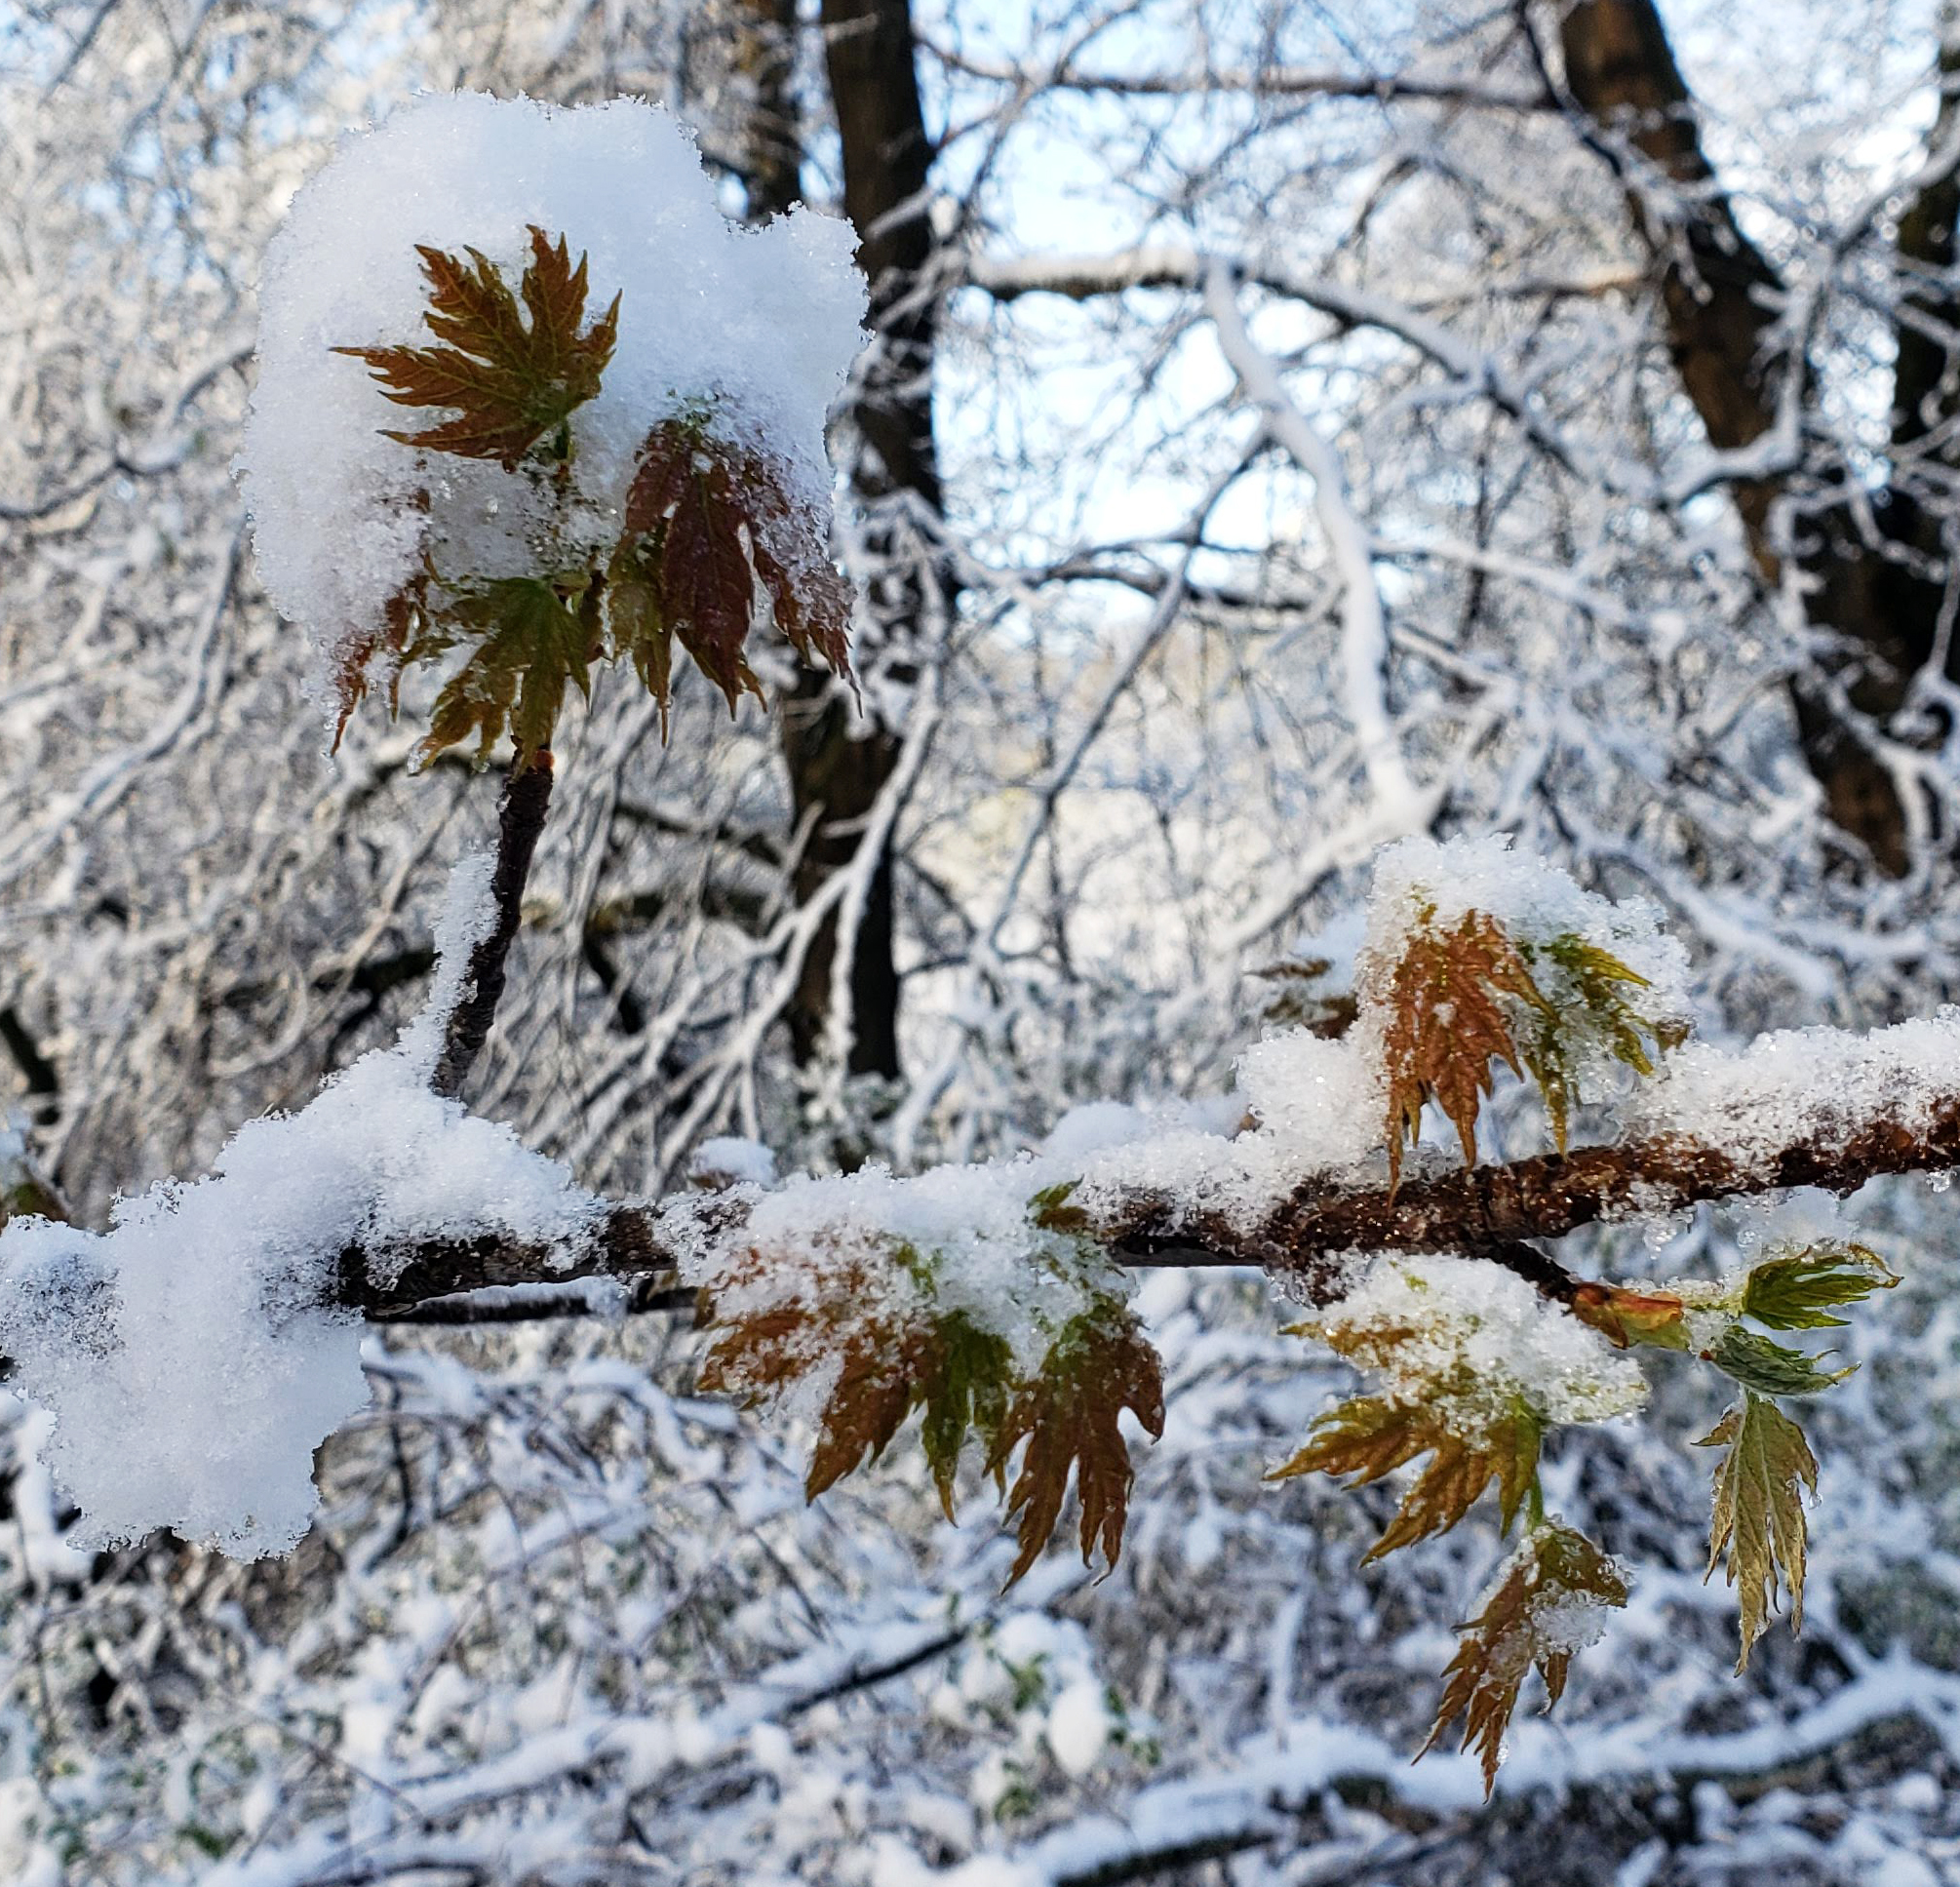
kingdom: Plantae
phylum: Tracheophyta
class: Magnoliopsida
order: Sapindales
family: Sapindaceae
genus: Acer
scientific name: Acer saccharinum
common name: Silver maple
